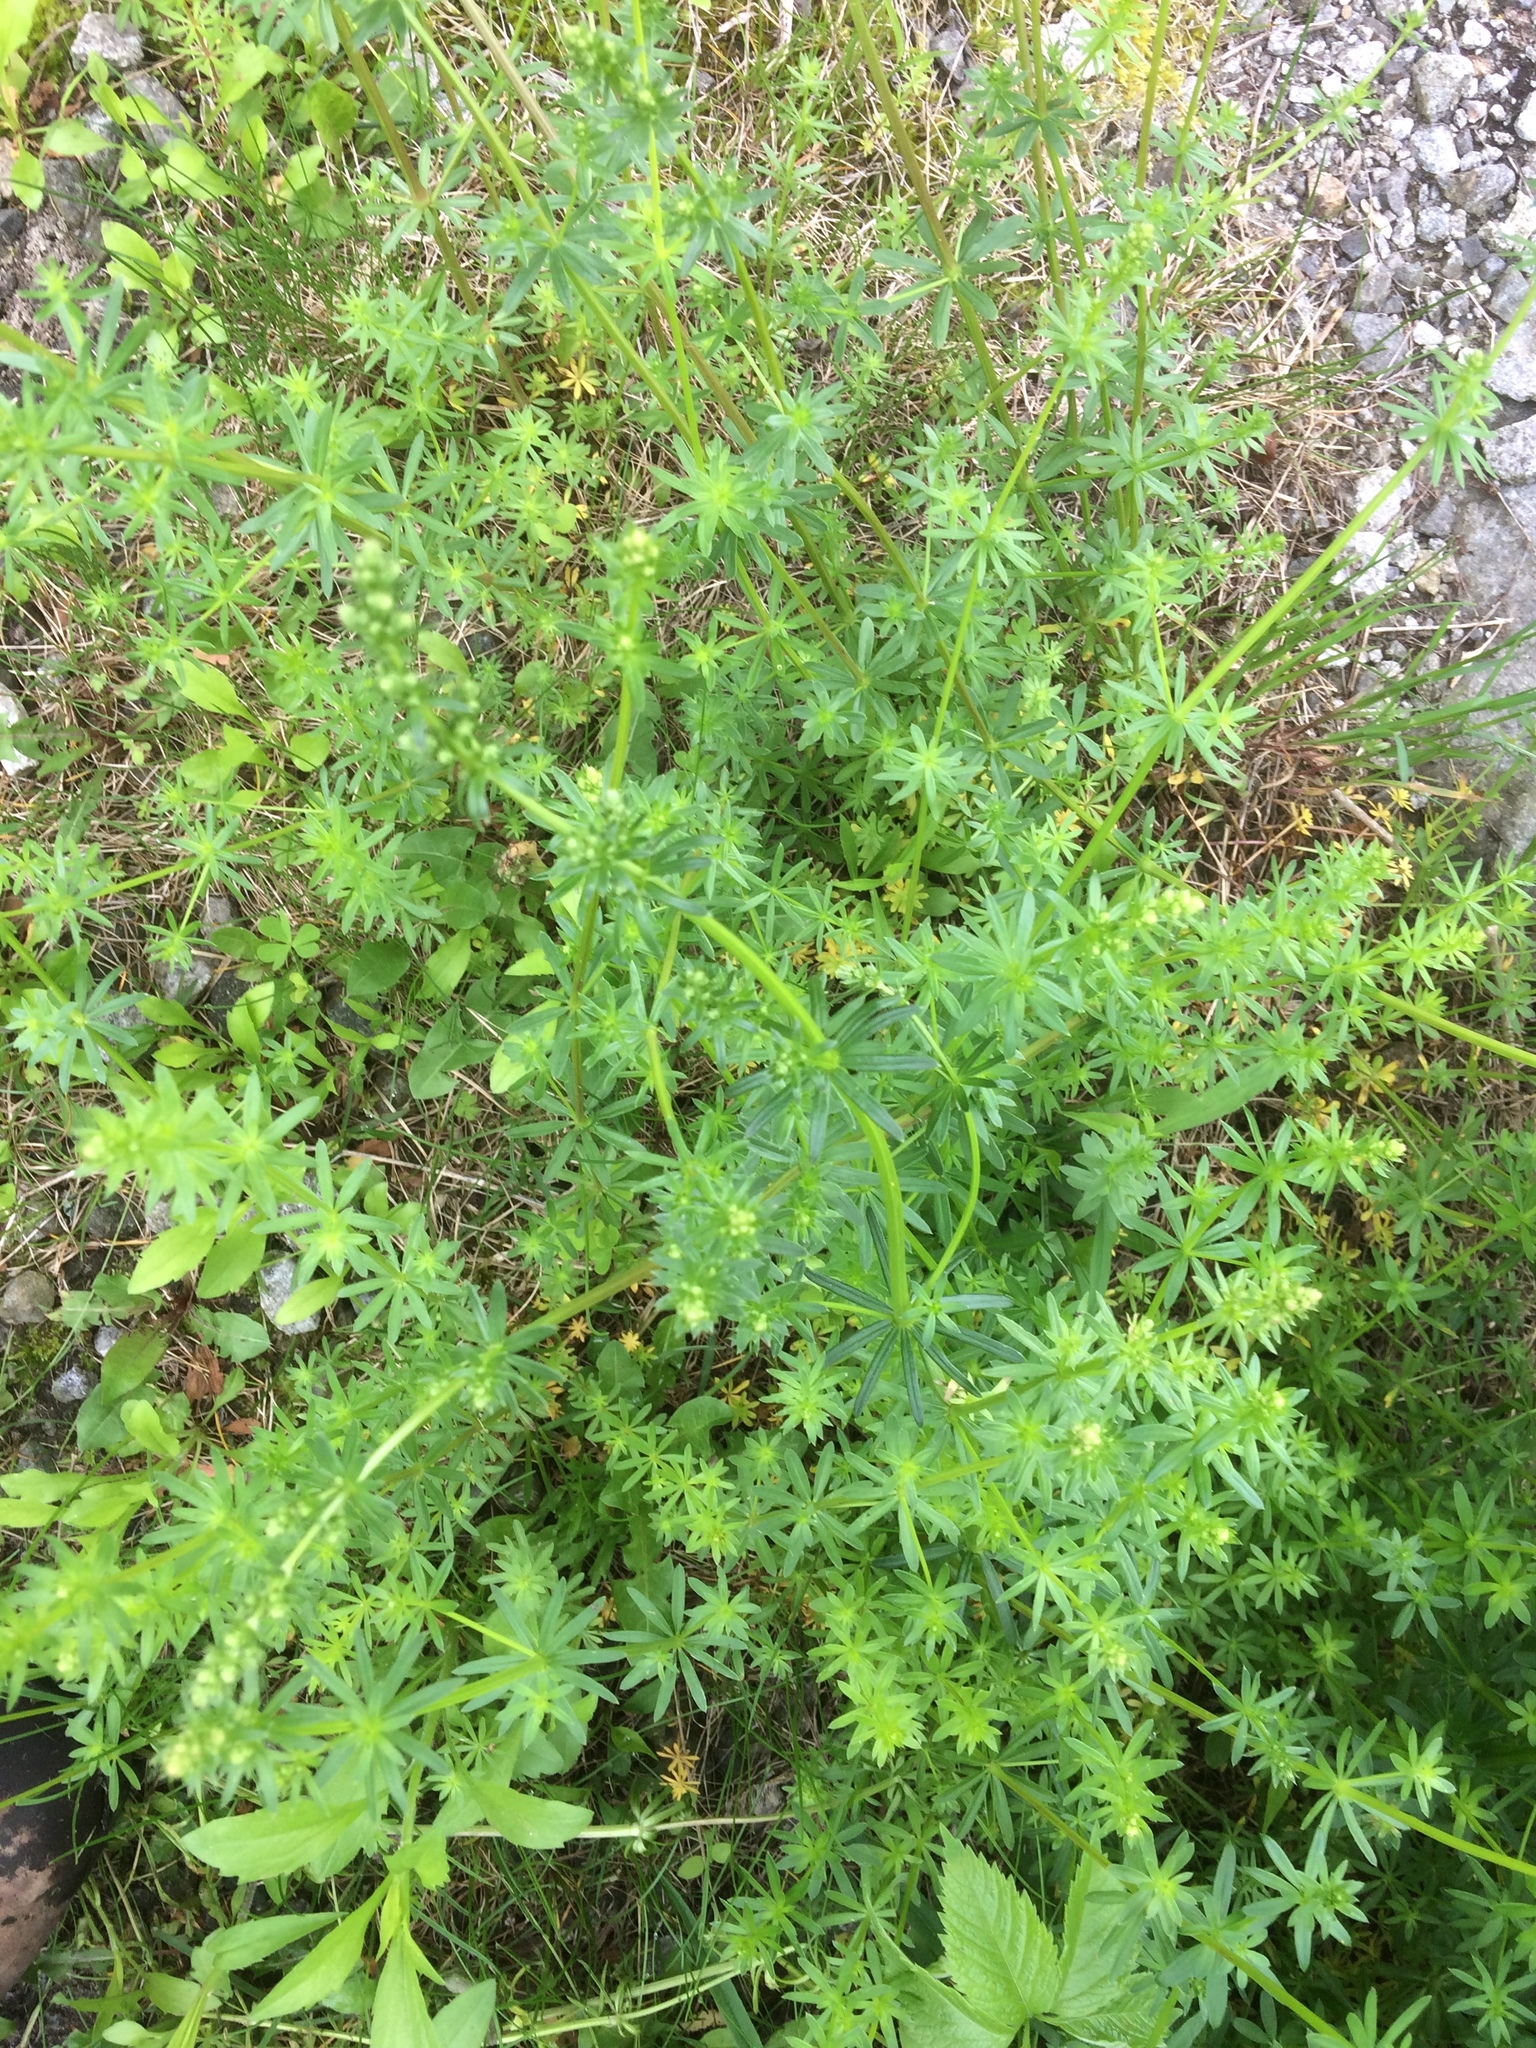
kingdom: Plantae
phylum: Tracheophyta
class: Magnoliopsida
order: Gentianales
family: Rubiaceae
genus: Galium
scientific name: Galium mollugo
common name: Hedge bedstraw
